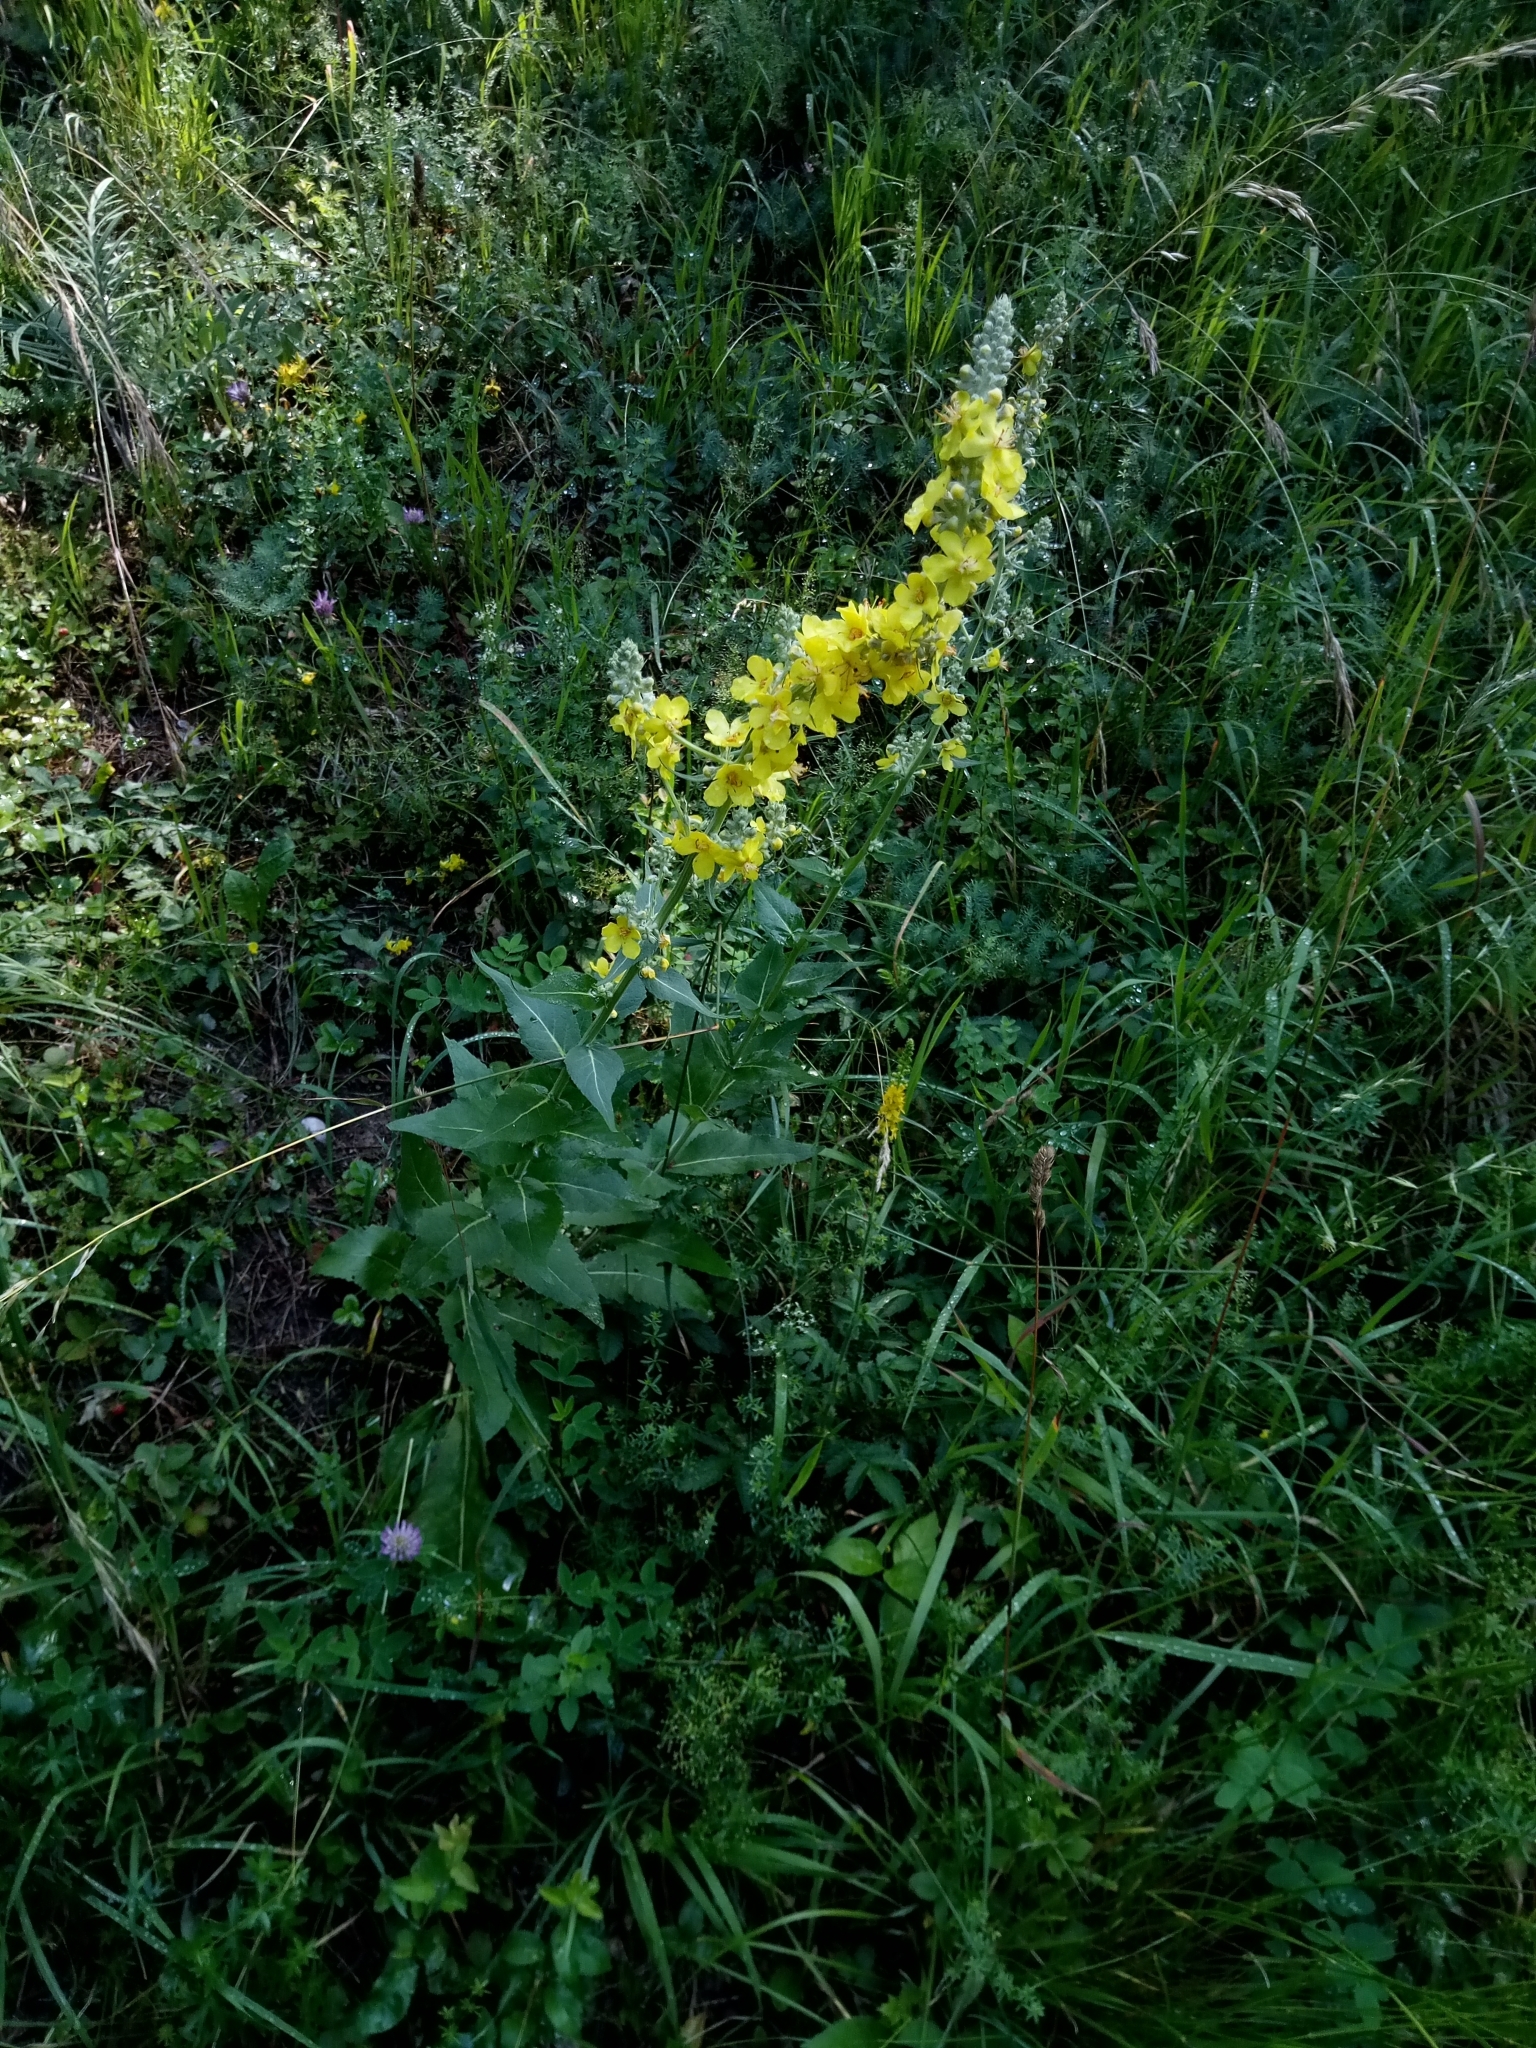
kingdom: Plantae
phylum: Tracheophyta
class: Magnoliopsida
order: Lamiales
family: Scrophulariaceae
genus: Verbascum
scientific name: Verbascum lychnitis
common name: White mullein
